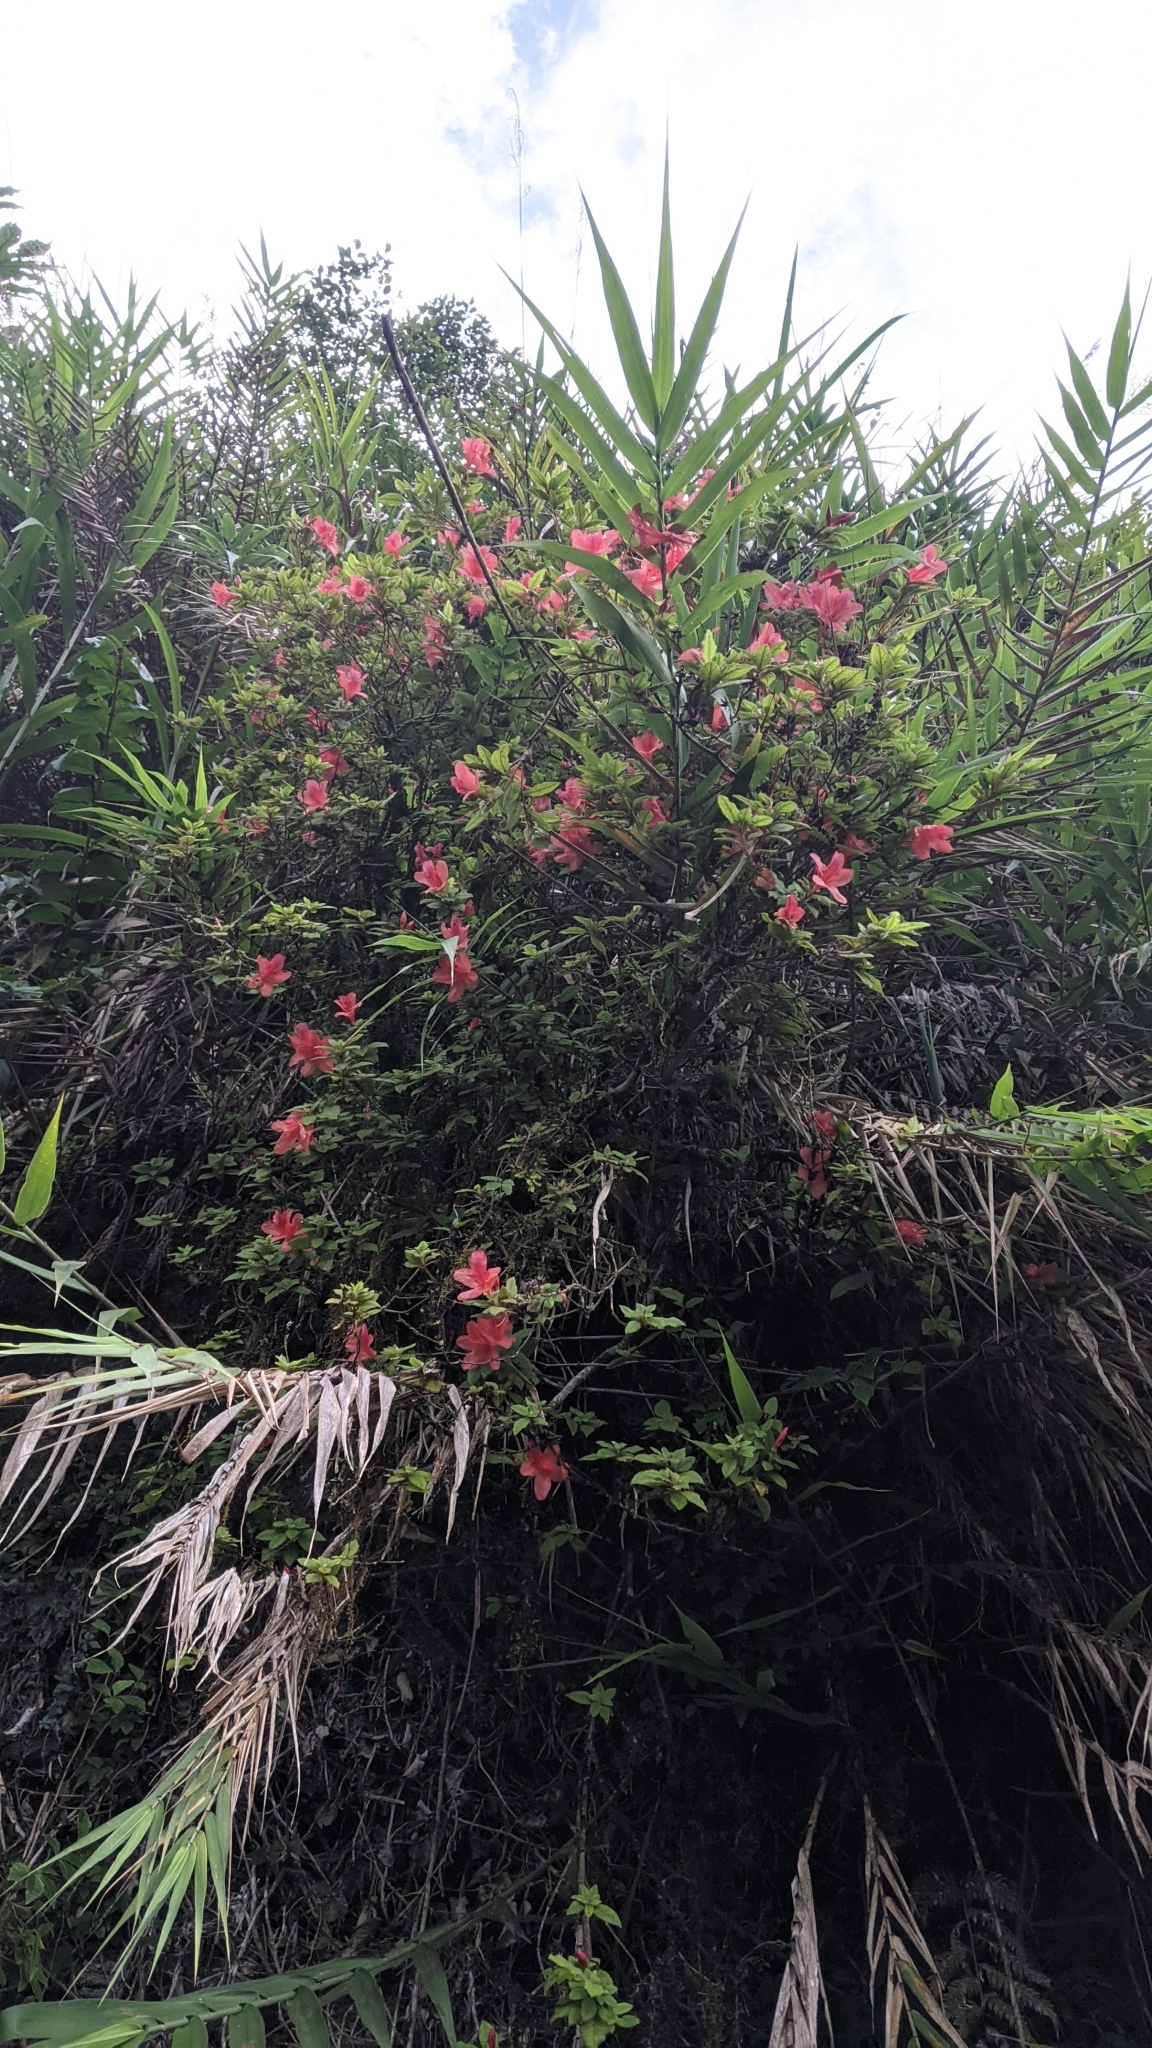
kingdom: Plantae
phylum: Tracheophyta
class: Magnoliopsida
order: Ericales
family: Ericaceae
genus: Rhododendron
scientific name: Rhododendron oldhamii
